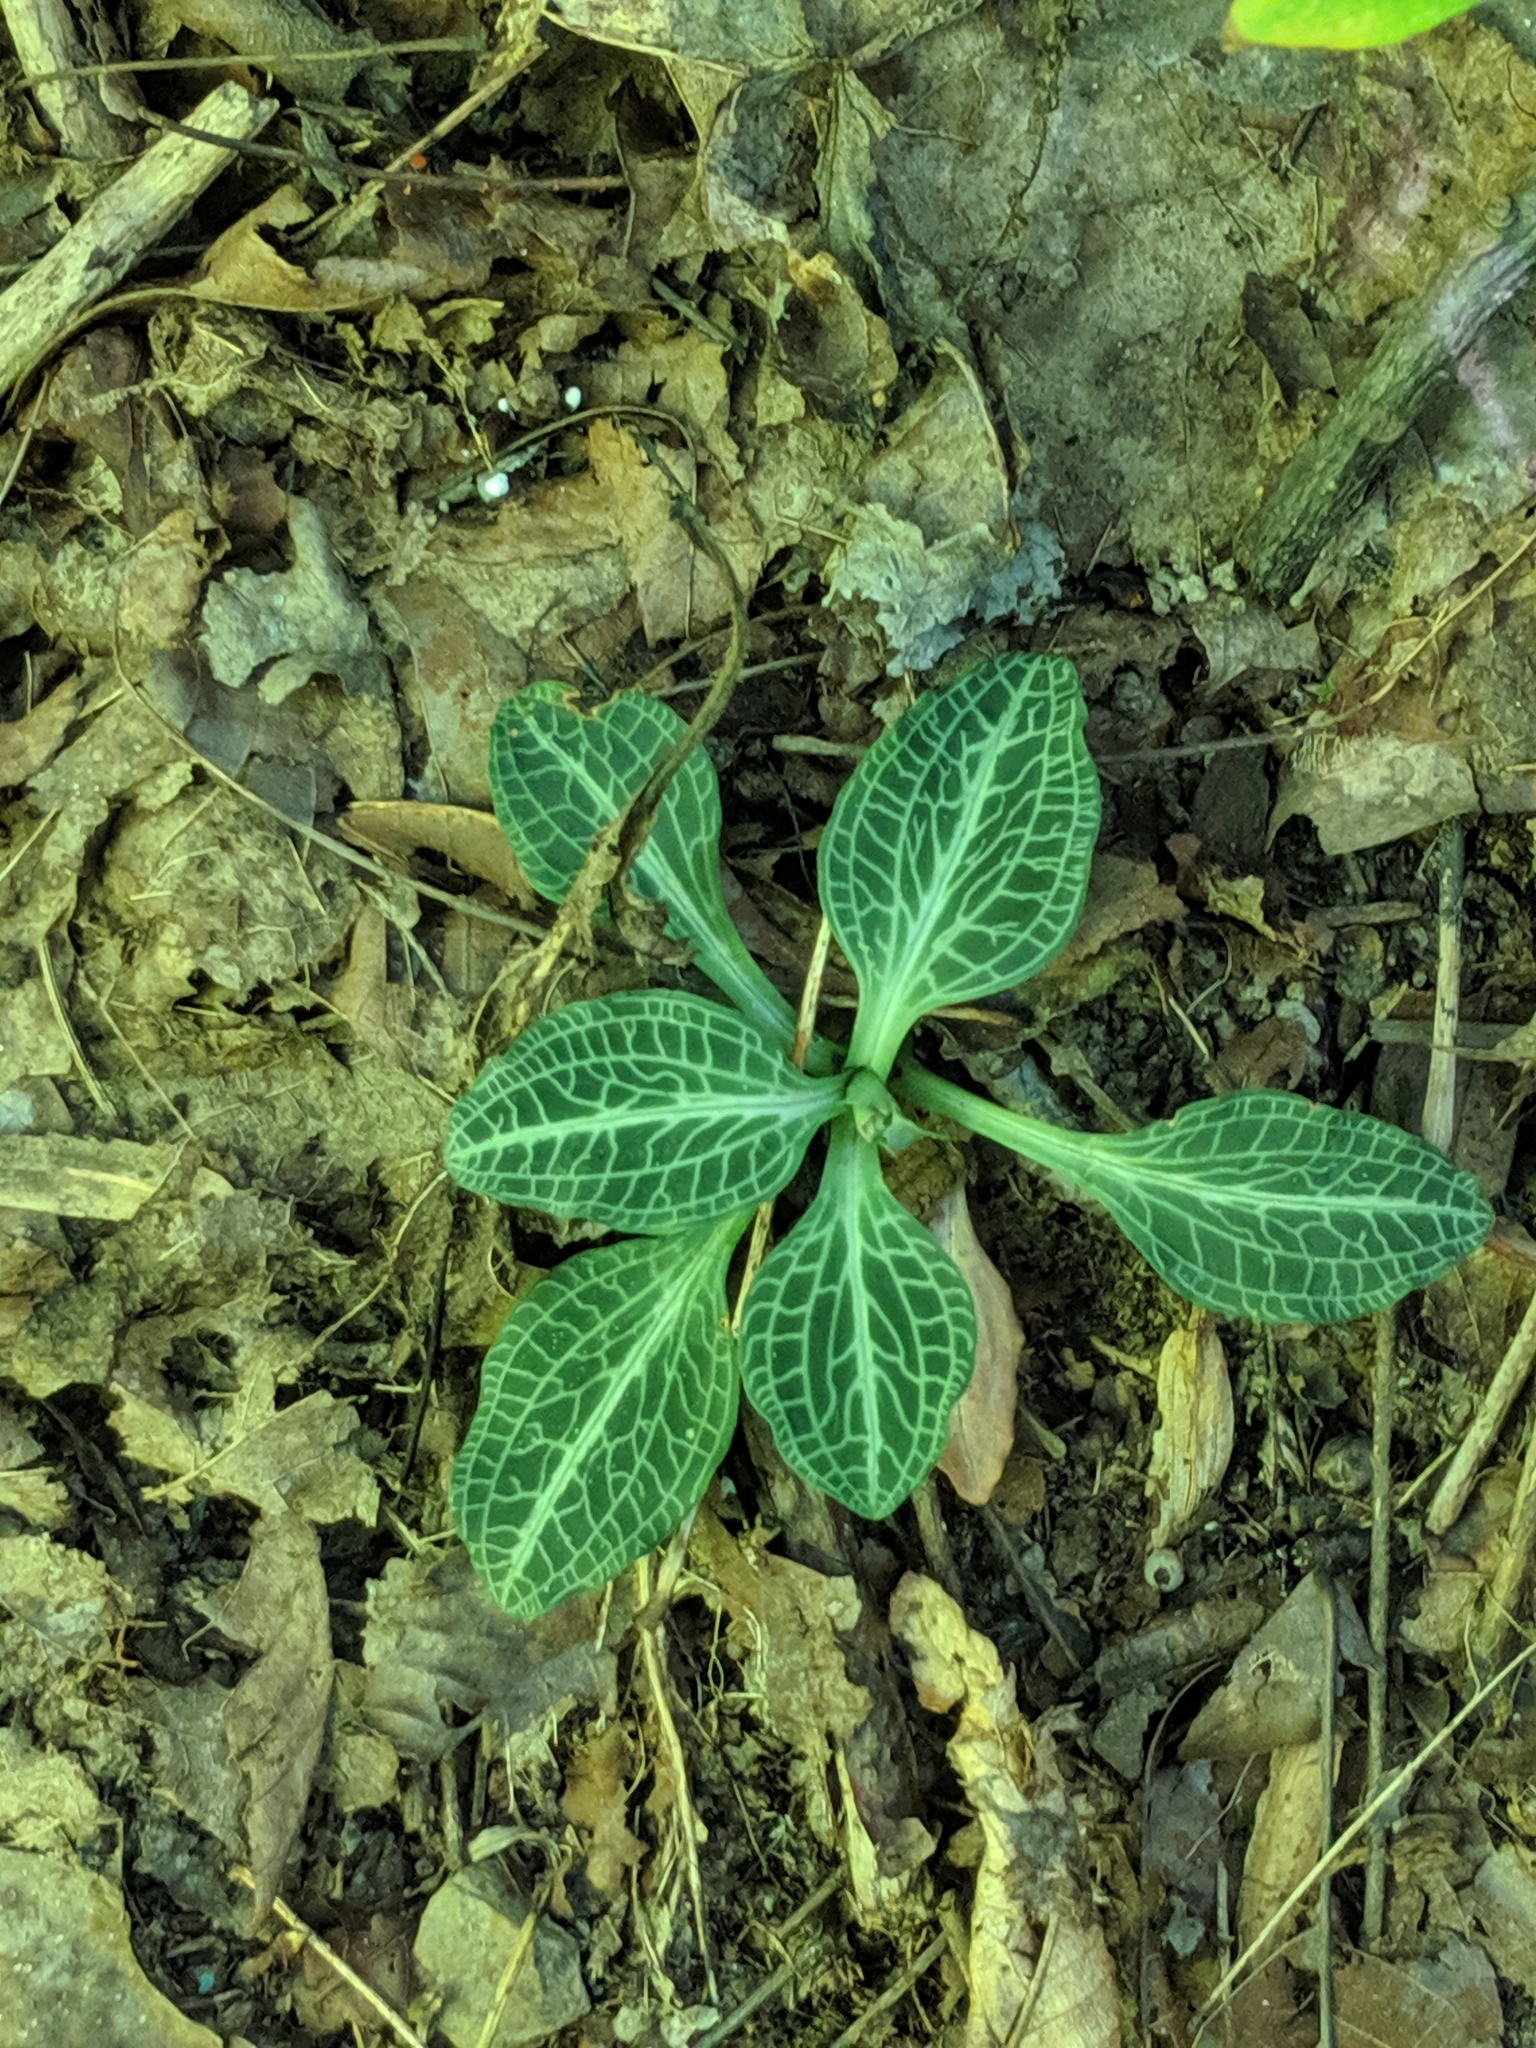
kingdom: Plantae
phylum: Tracheophyta
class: Liliopsida
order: Asparagales
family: Orchidaceae
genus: Goodyera
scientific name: Goodyera pubescens
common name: Downy rattlesnake-plantain
